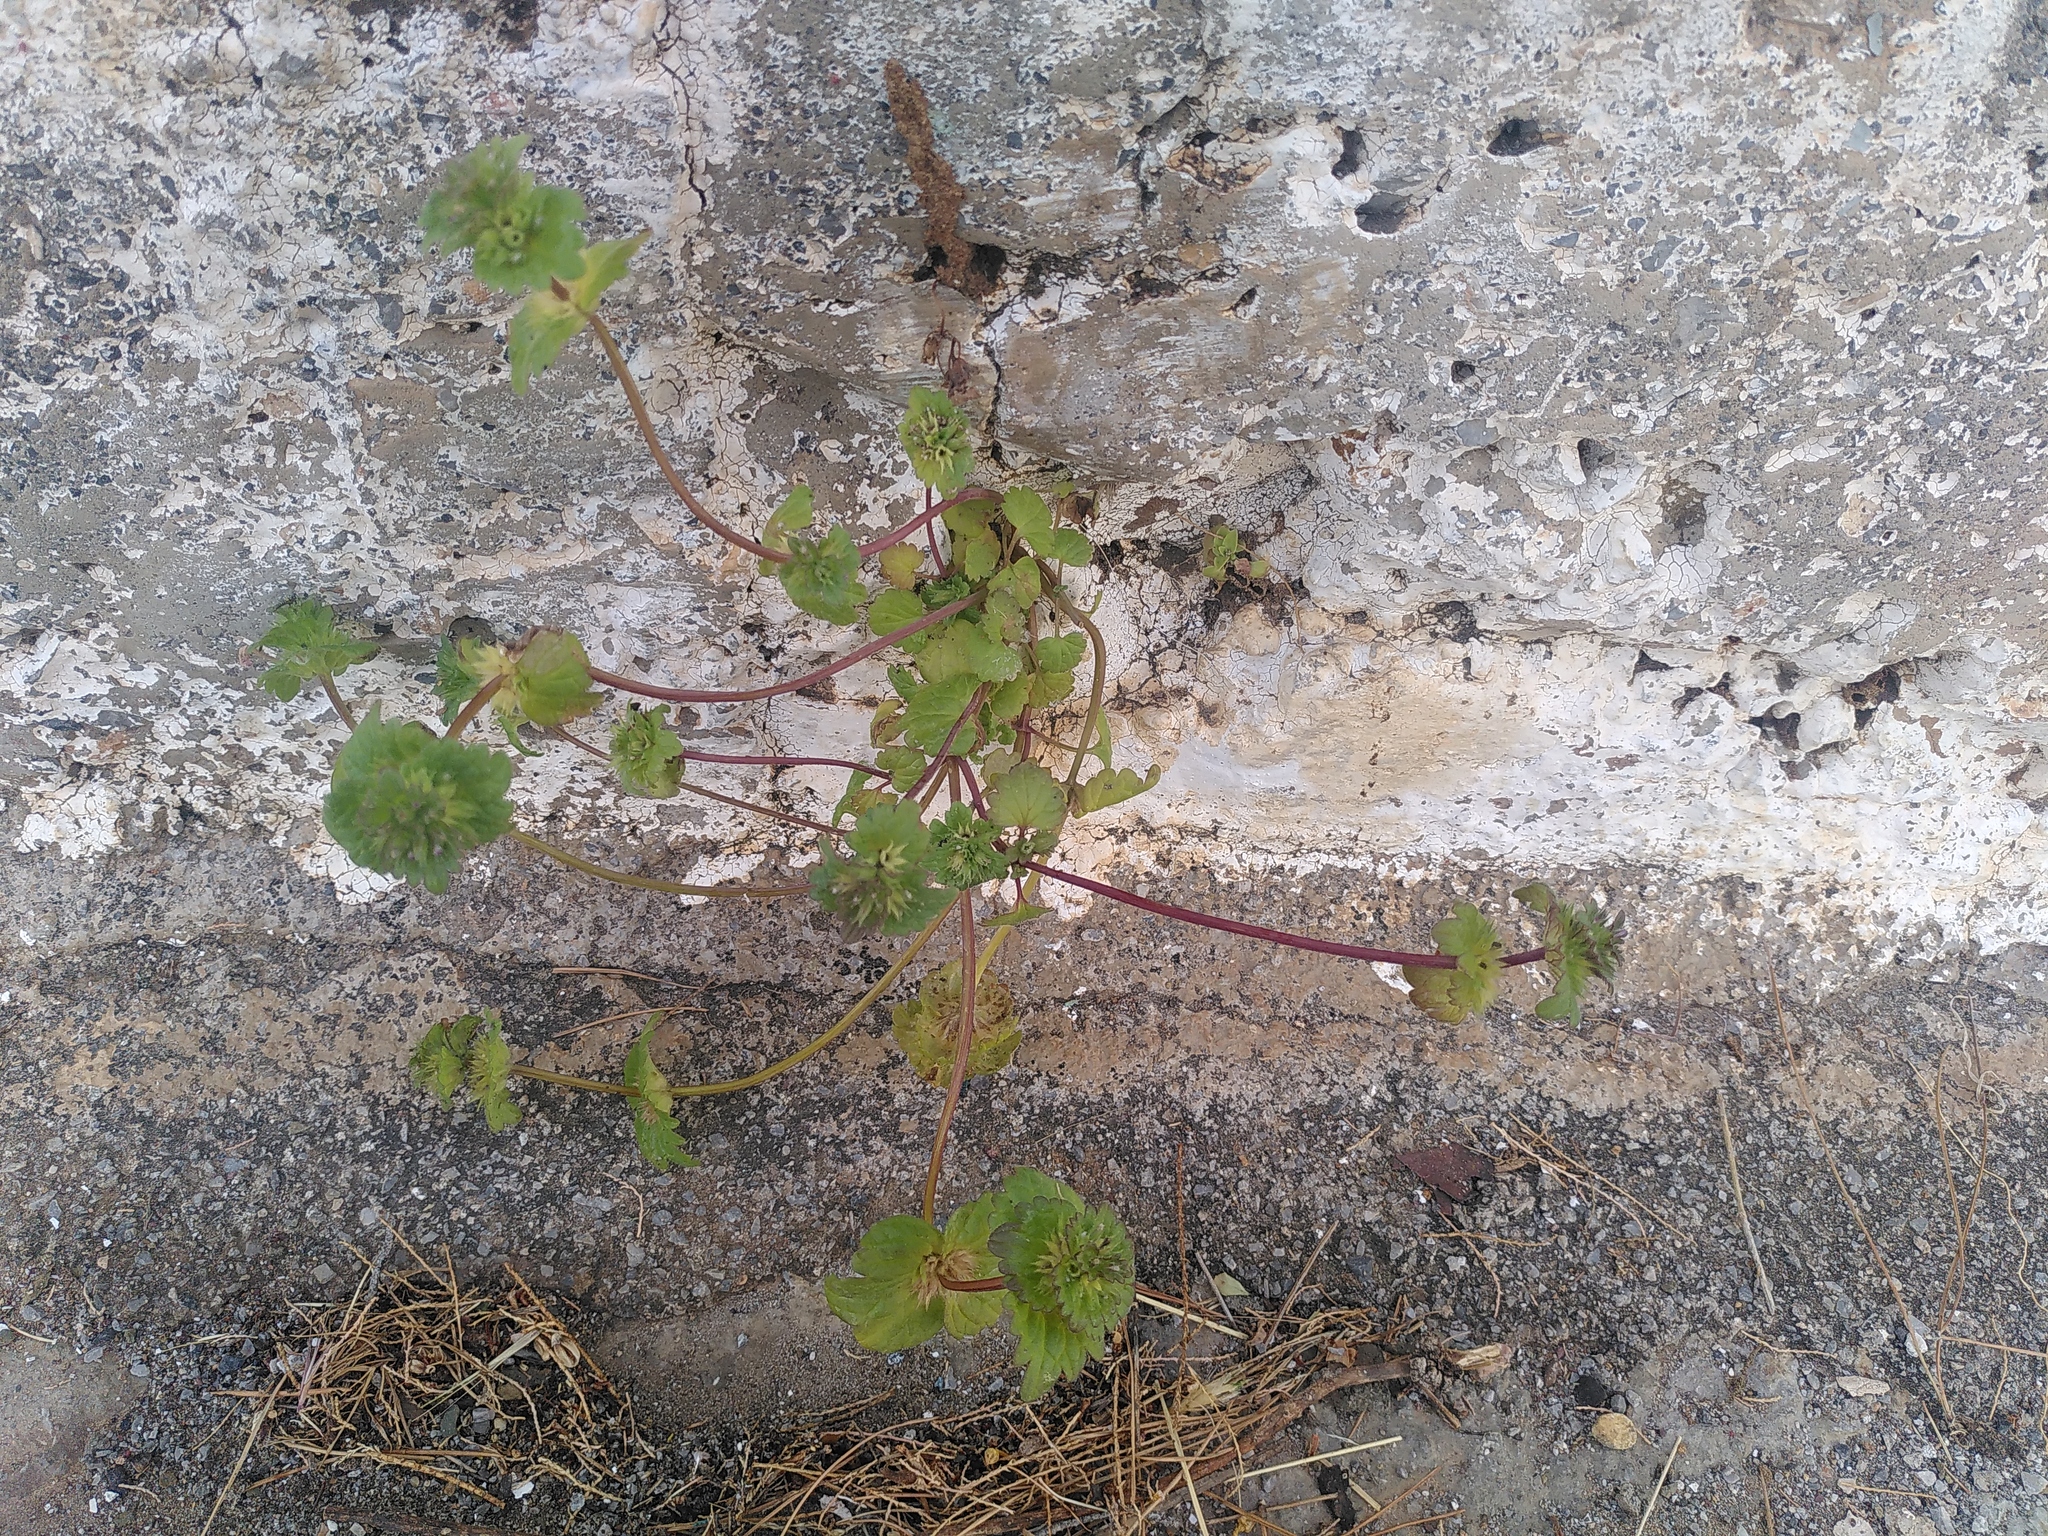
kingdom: Plantae
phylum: Tracheophyta
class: Magnoliopsida
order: Lamiales
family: Lamiaceae
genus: Lamium
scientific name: Lamium amplexicaule
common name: Henbit dead-nettle
